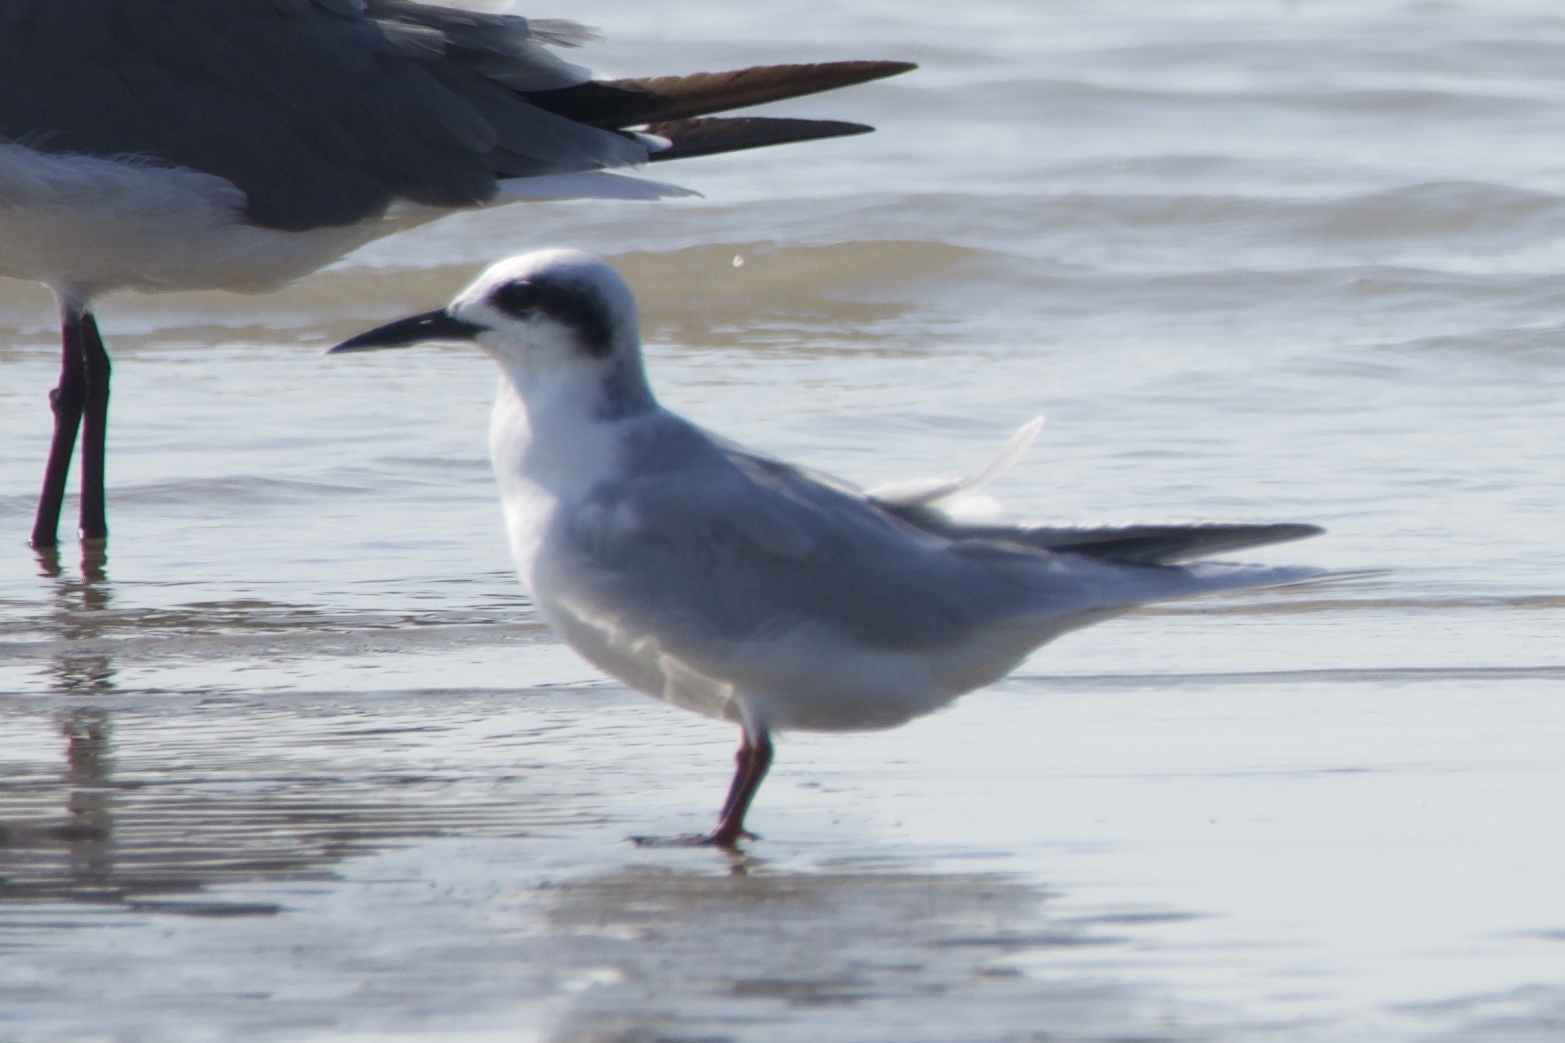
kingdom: Animalia
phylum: Chordata
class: Aves
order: Charadriiformes
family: Laridae
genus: Sterna
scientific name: Sterna forsteri
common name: Forster's tern
